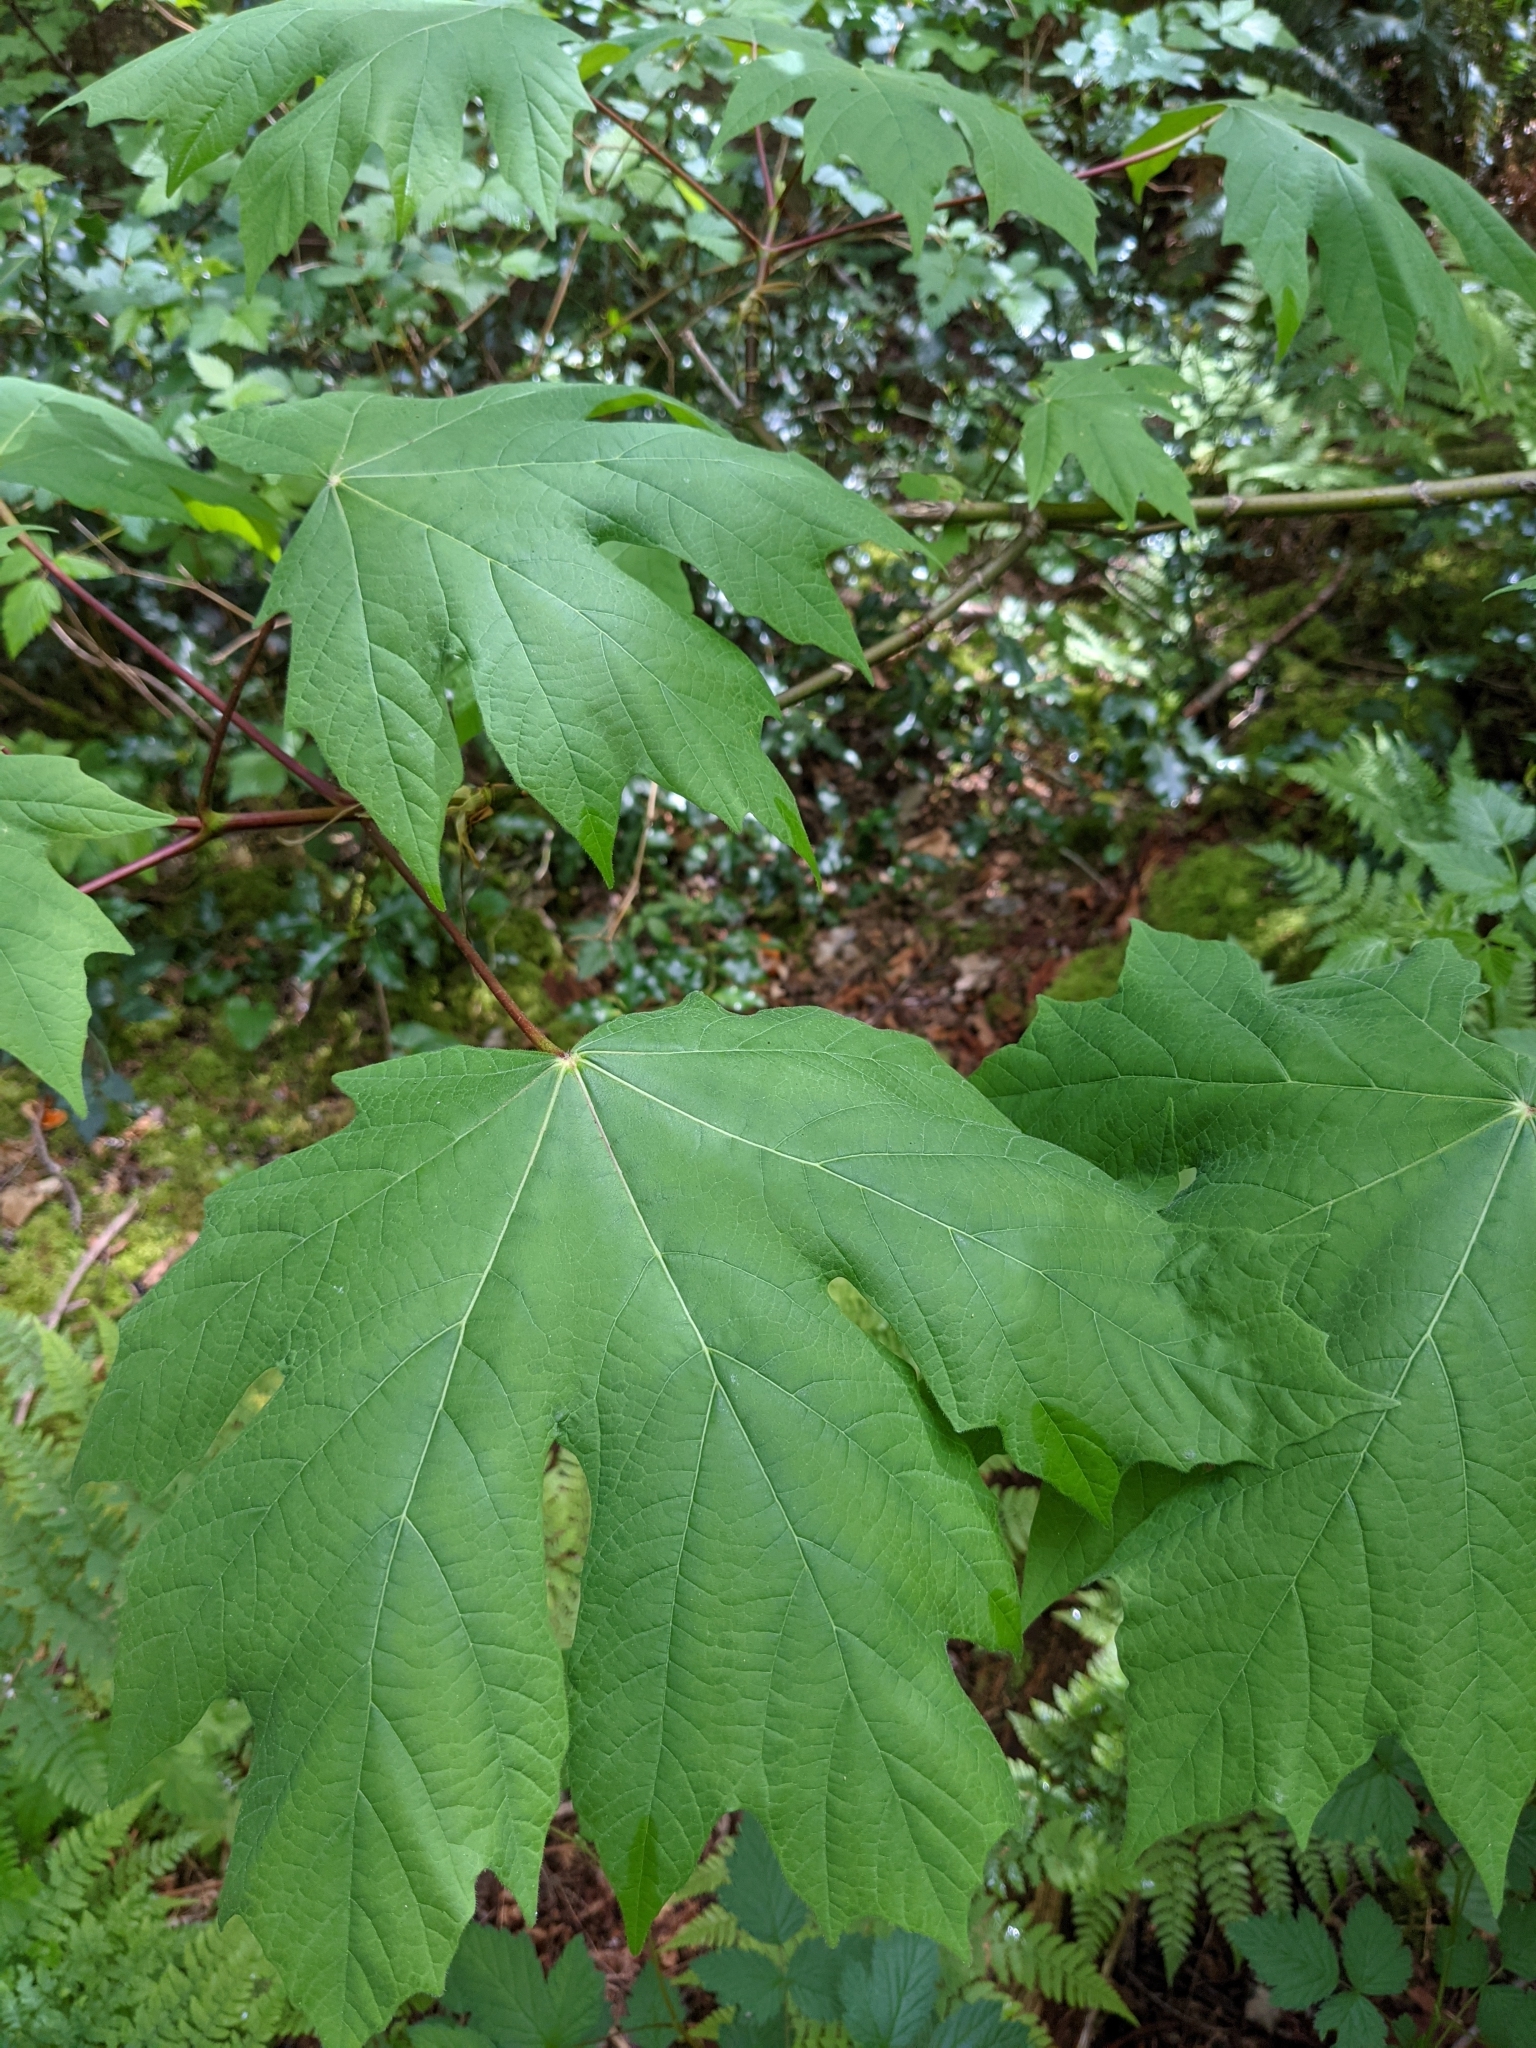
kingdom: Plantae
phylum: Tracheophyta
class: Magnoliopsida
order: Sapindales
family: Sapindaceae
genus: Acer
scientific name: Acer macrophyllum
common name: Oregon maple
